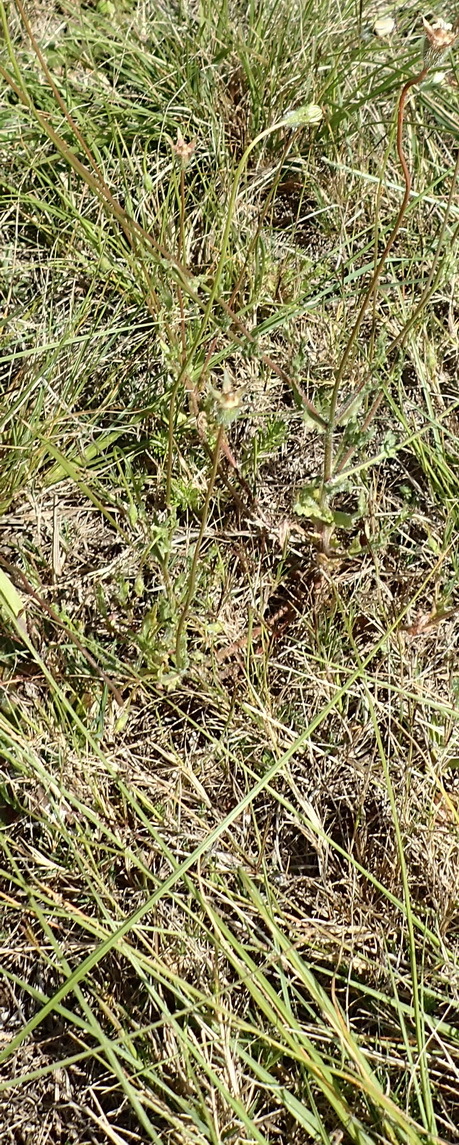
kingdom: Plantae
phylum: Tracheophyta
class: Magnoliopsida
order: Asterales
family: Campanulaceae
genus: Wahlenbergia
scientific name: Wahlenbergia capensis
